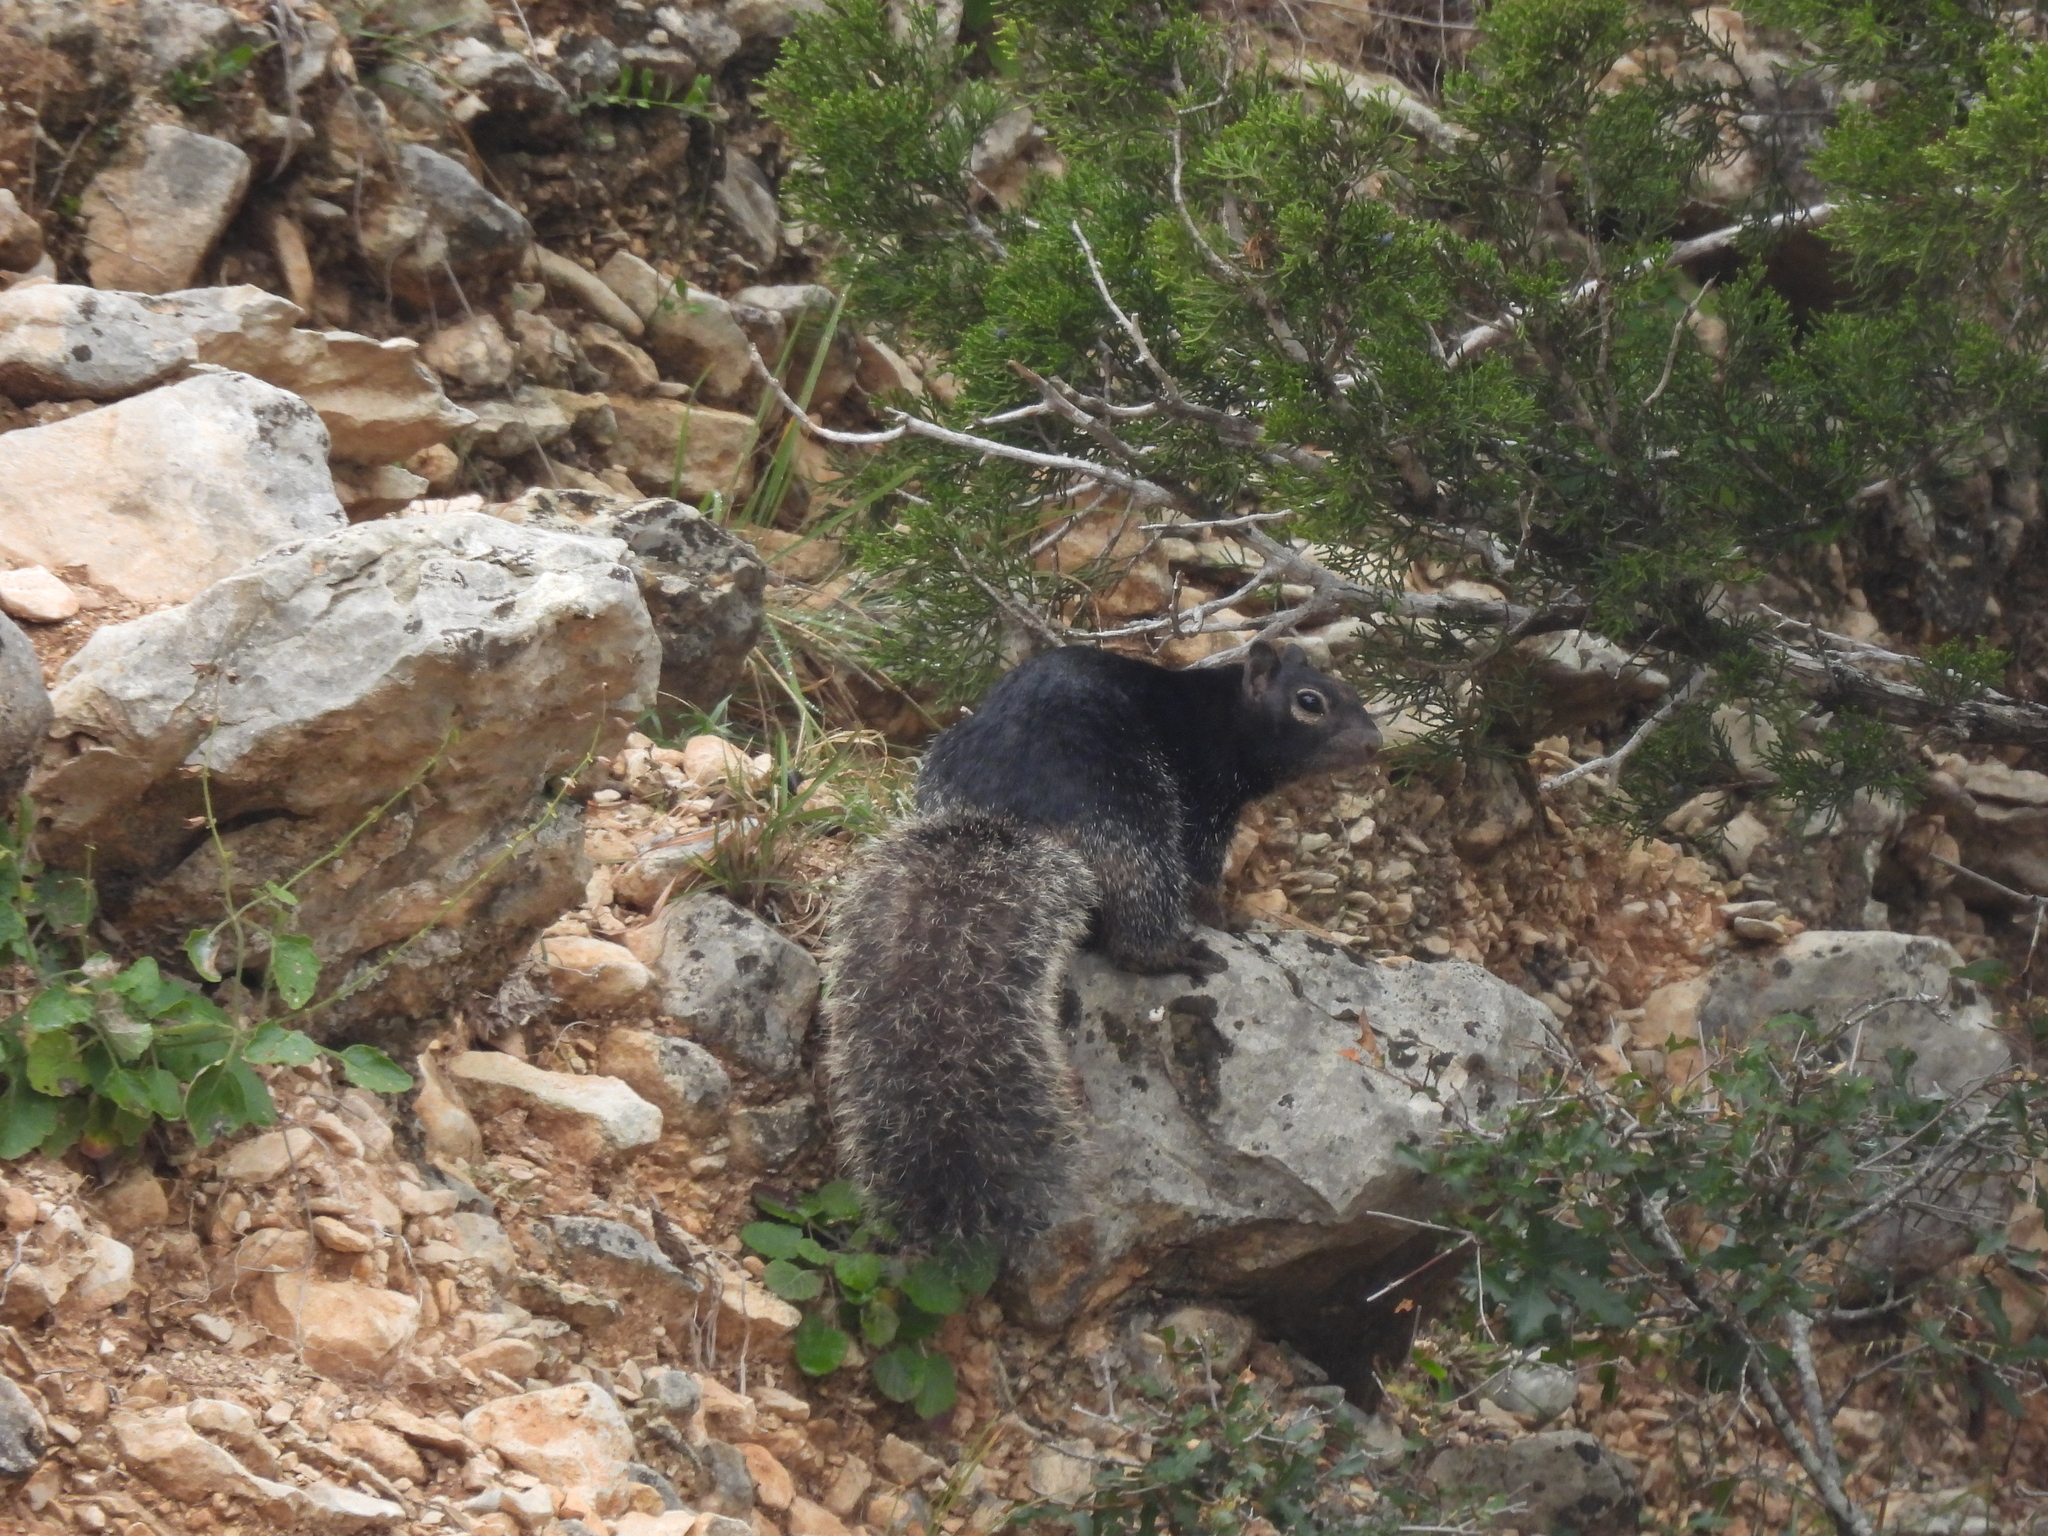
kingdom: Animalia
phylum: Chordata
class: Mammalia
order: Rodentia
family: Sciuridae
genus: Otospermophilus
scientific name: Otospermophilus variegatus
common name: Rock squirrel
